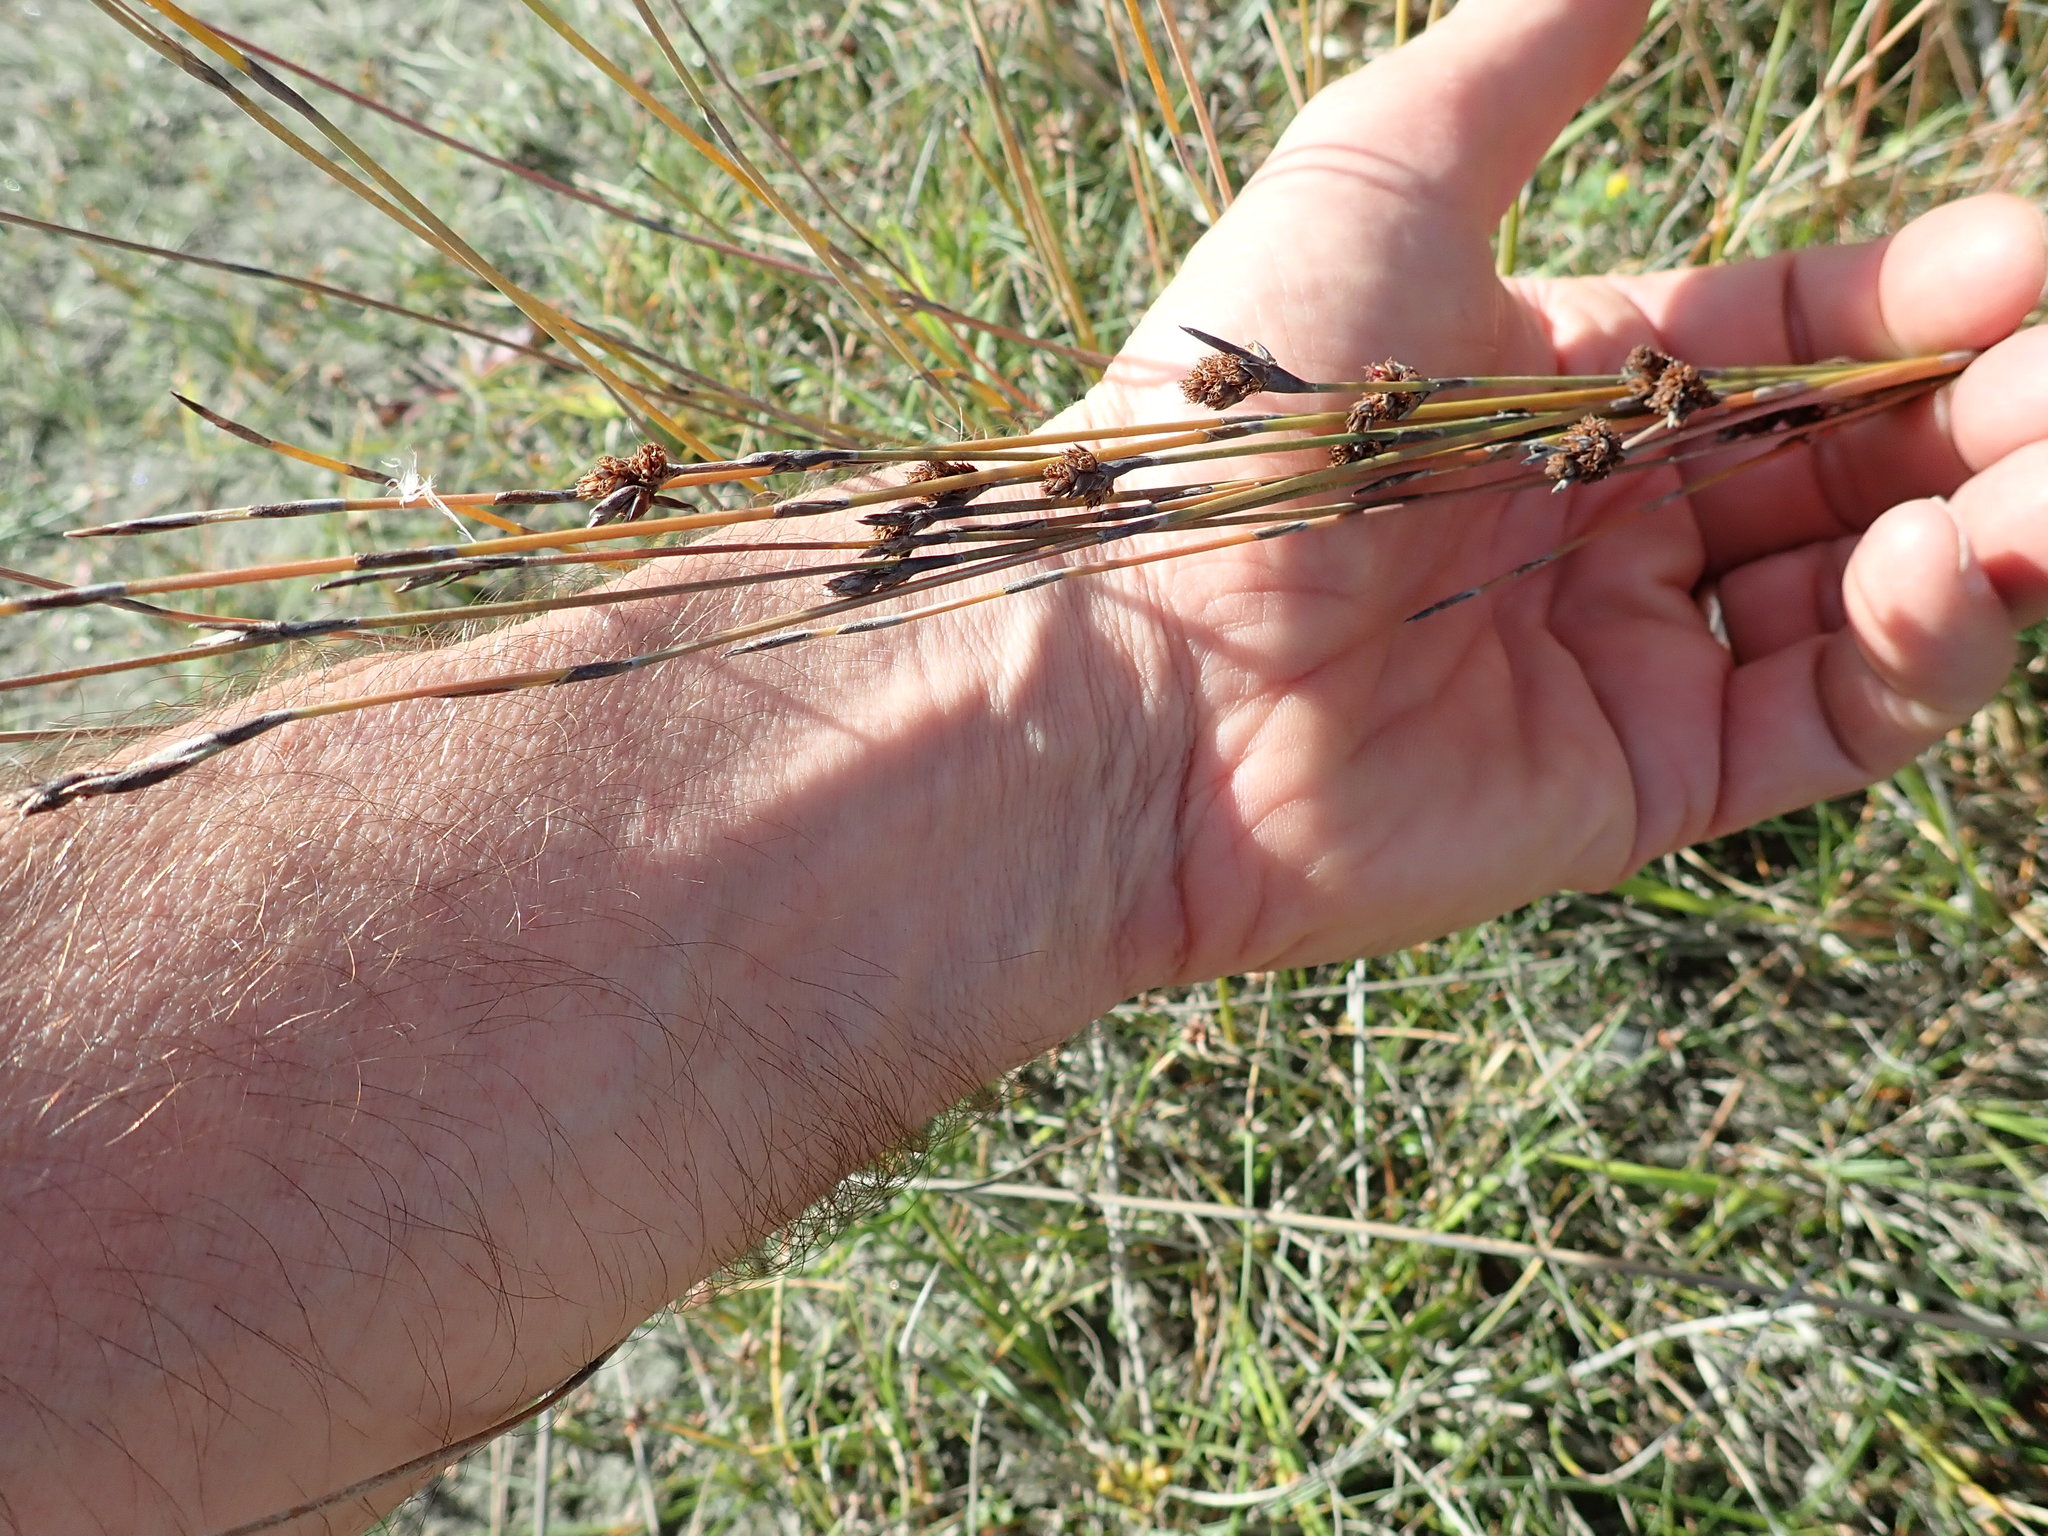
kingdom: Plantae
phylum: Tracheophyta
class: Liliopsida
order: Poales
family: Restionaceae
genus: Apodasmia
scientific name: Apodasmia similis
